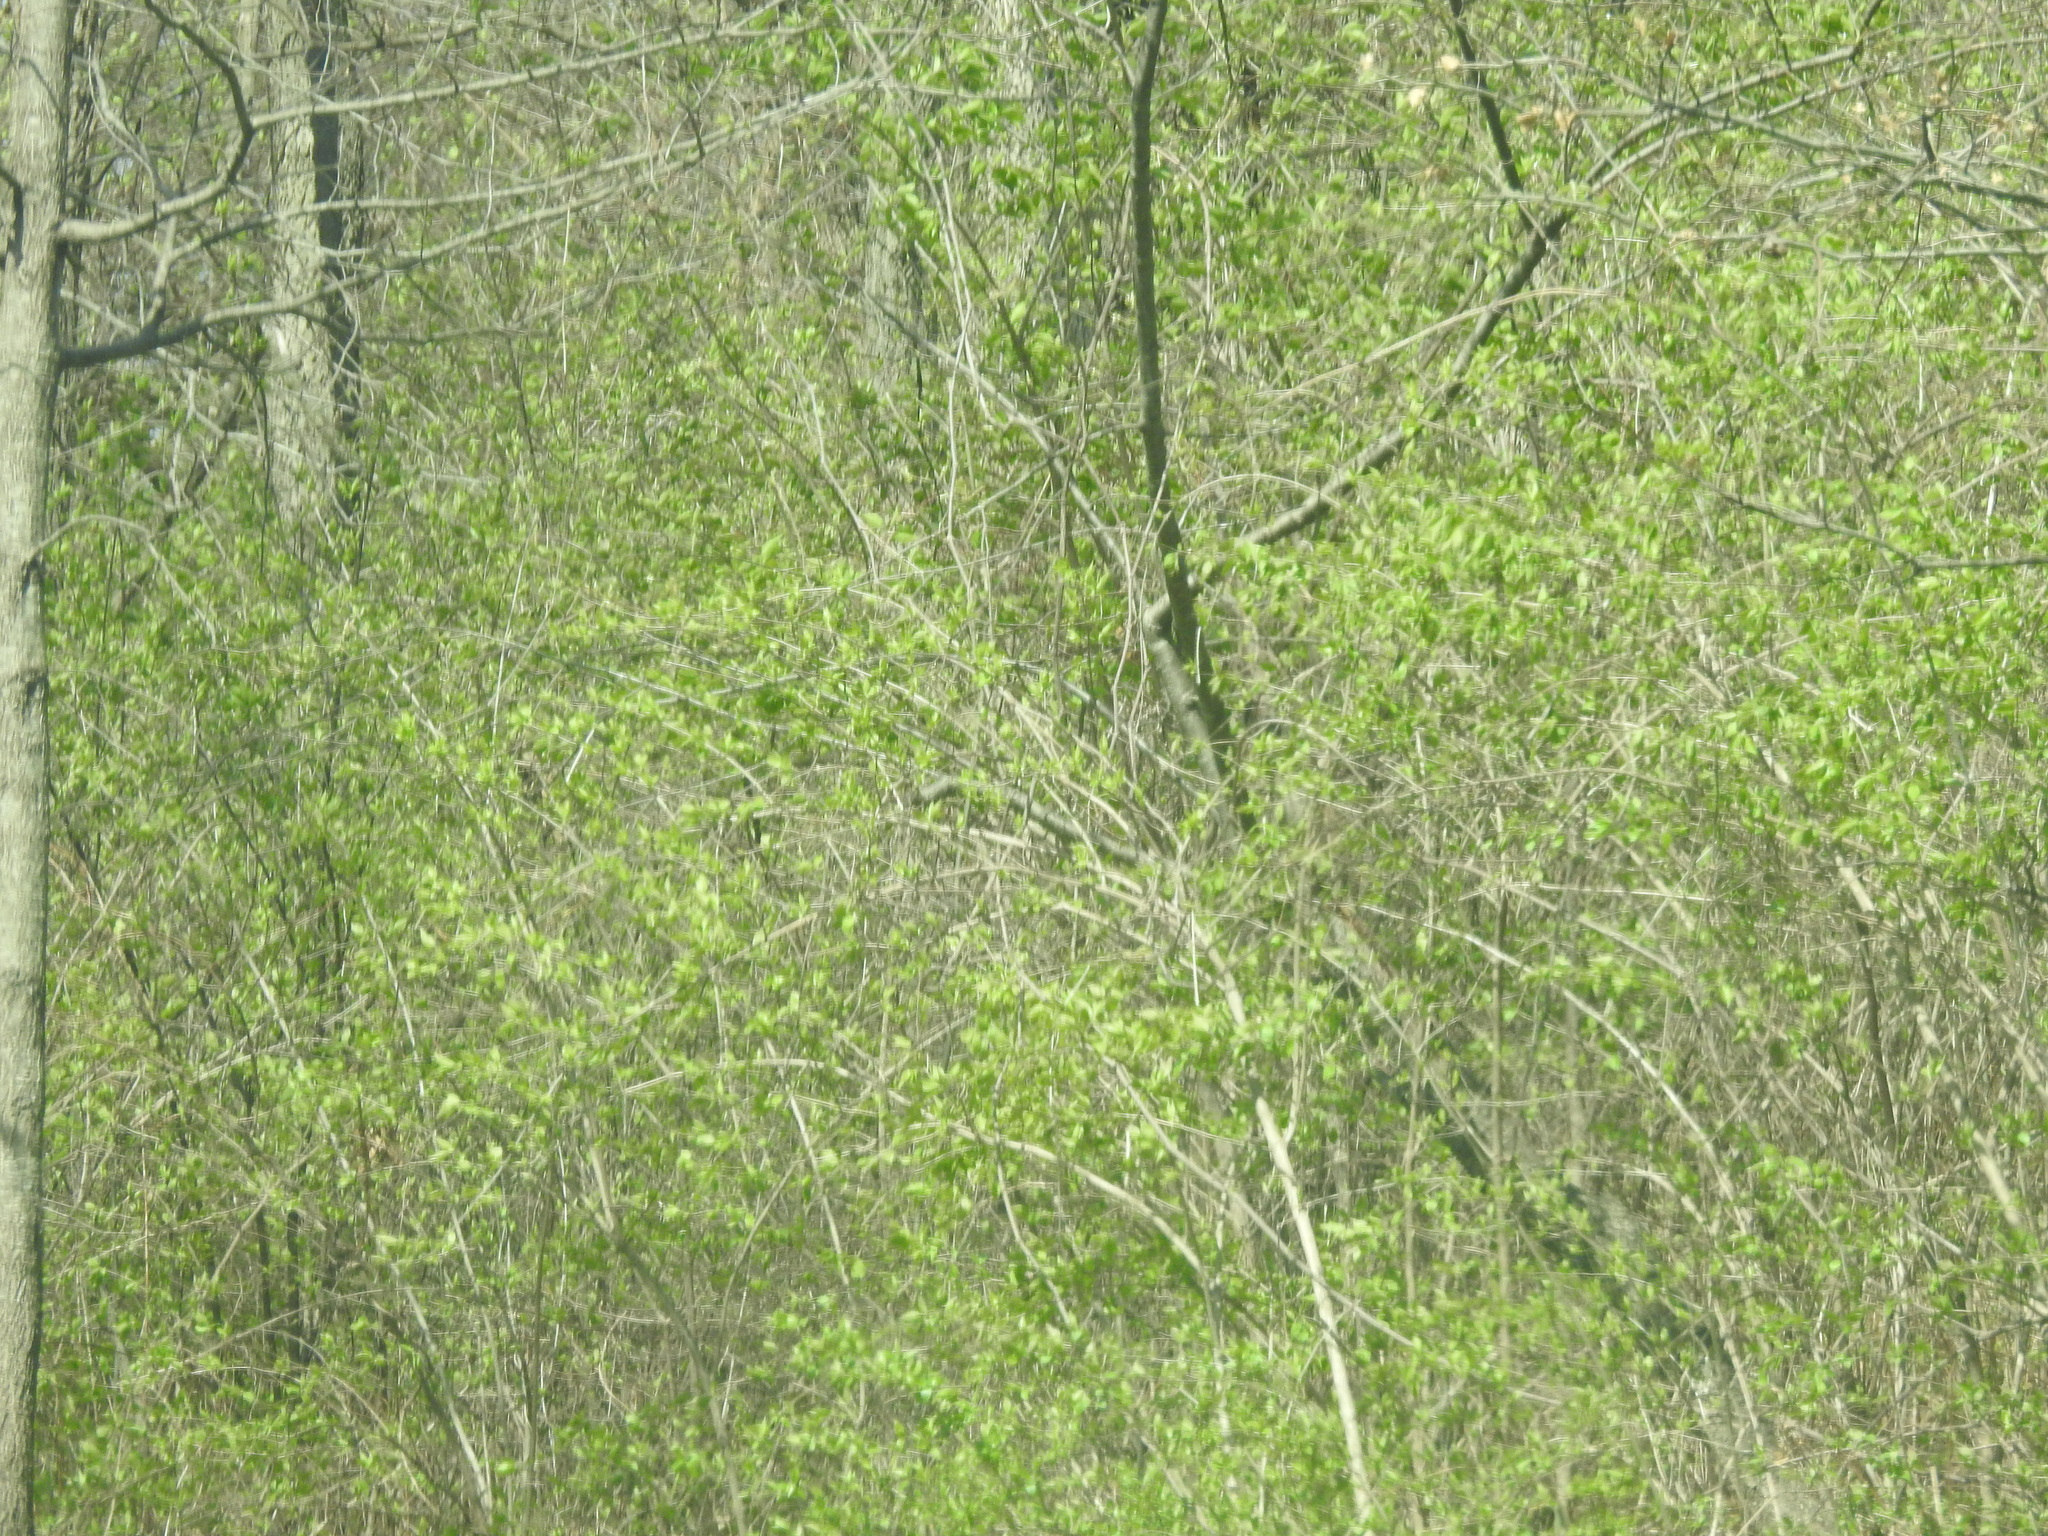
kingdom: Plantae
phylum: Tracheophyta
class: Magnoliopsida
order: Dipsacales
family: Caprifoliaceae
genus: Lonicera
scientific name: Lonicera maackii
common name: Amur honeysuckle
